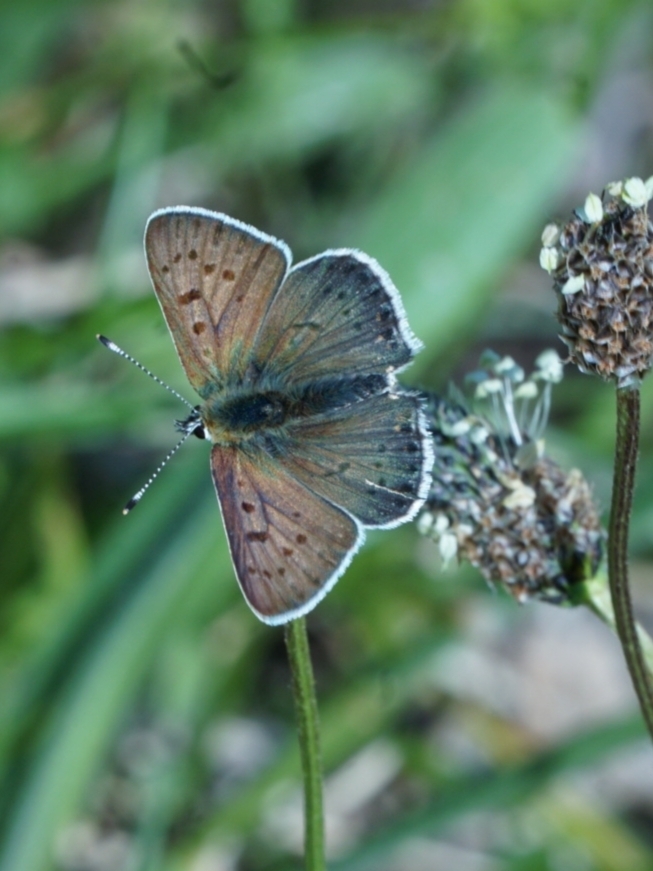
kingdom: Animalia
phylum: Arthropoda
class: Insecta
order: Lepidoptera
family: Lycaenidae
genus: Loweia
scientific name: Loweia tityrus
